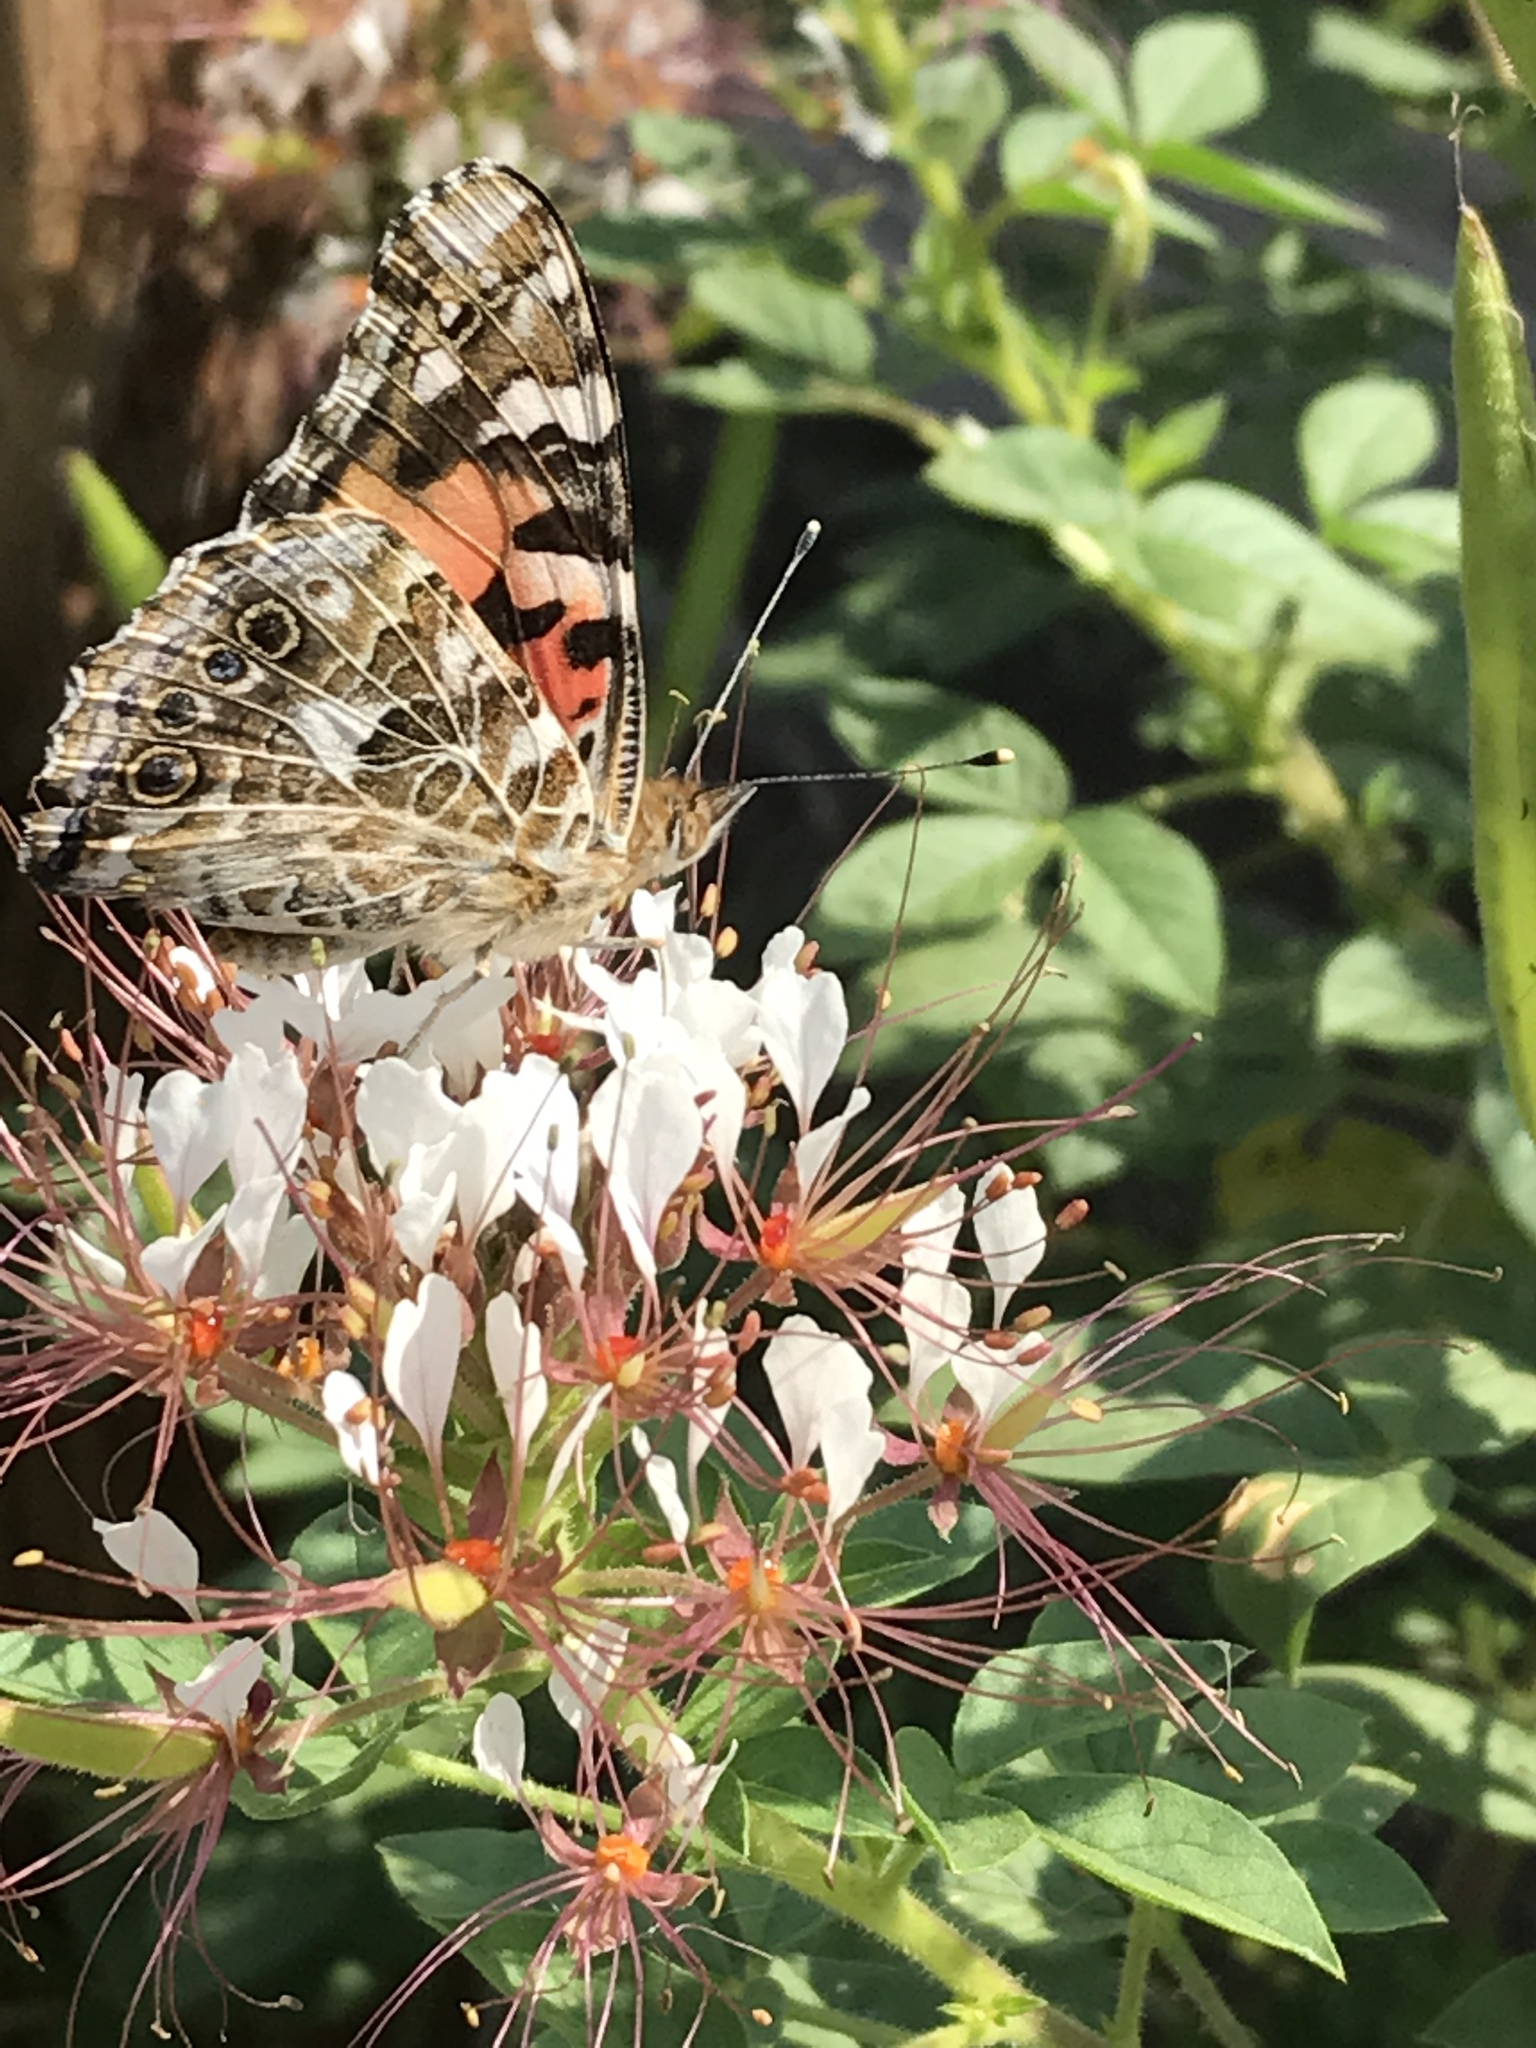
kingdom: Animalia
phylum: Arthropoda
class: Insecta
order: Lepidoptera
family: Nymphalidae
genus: Vanessa
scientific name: Vanessa cardui
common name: Painted lady
